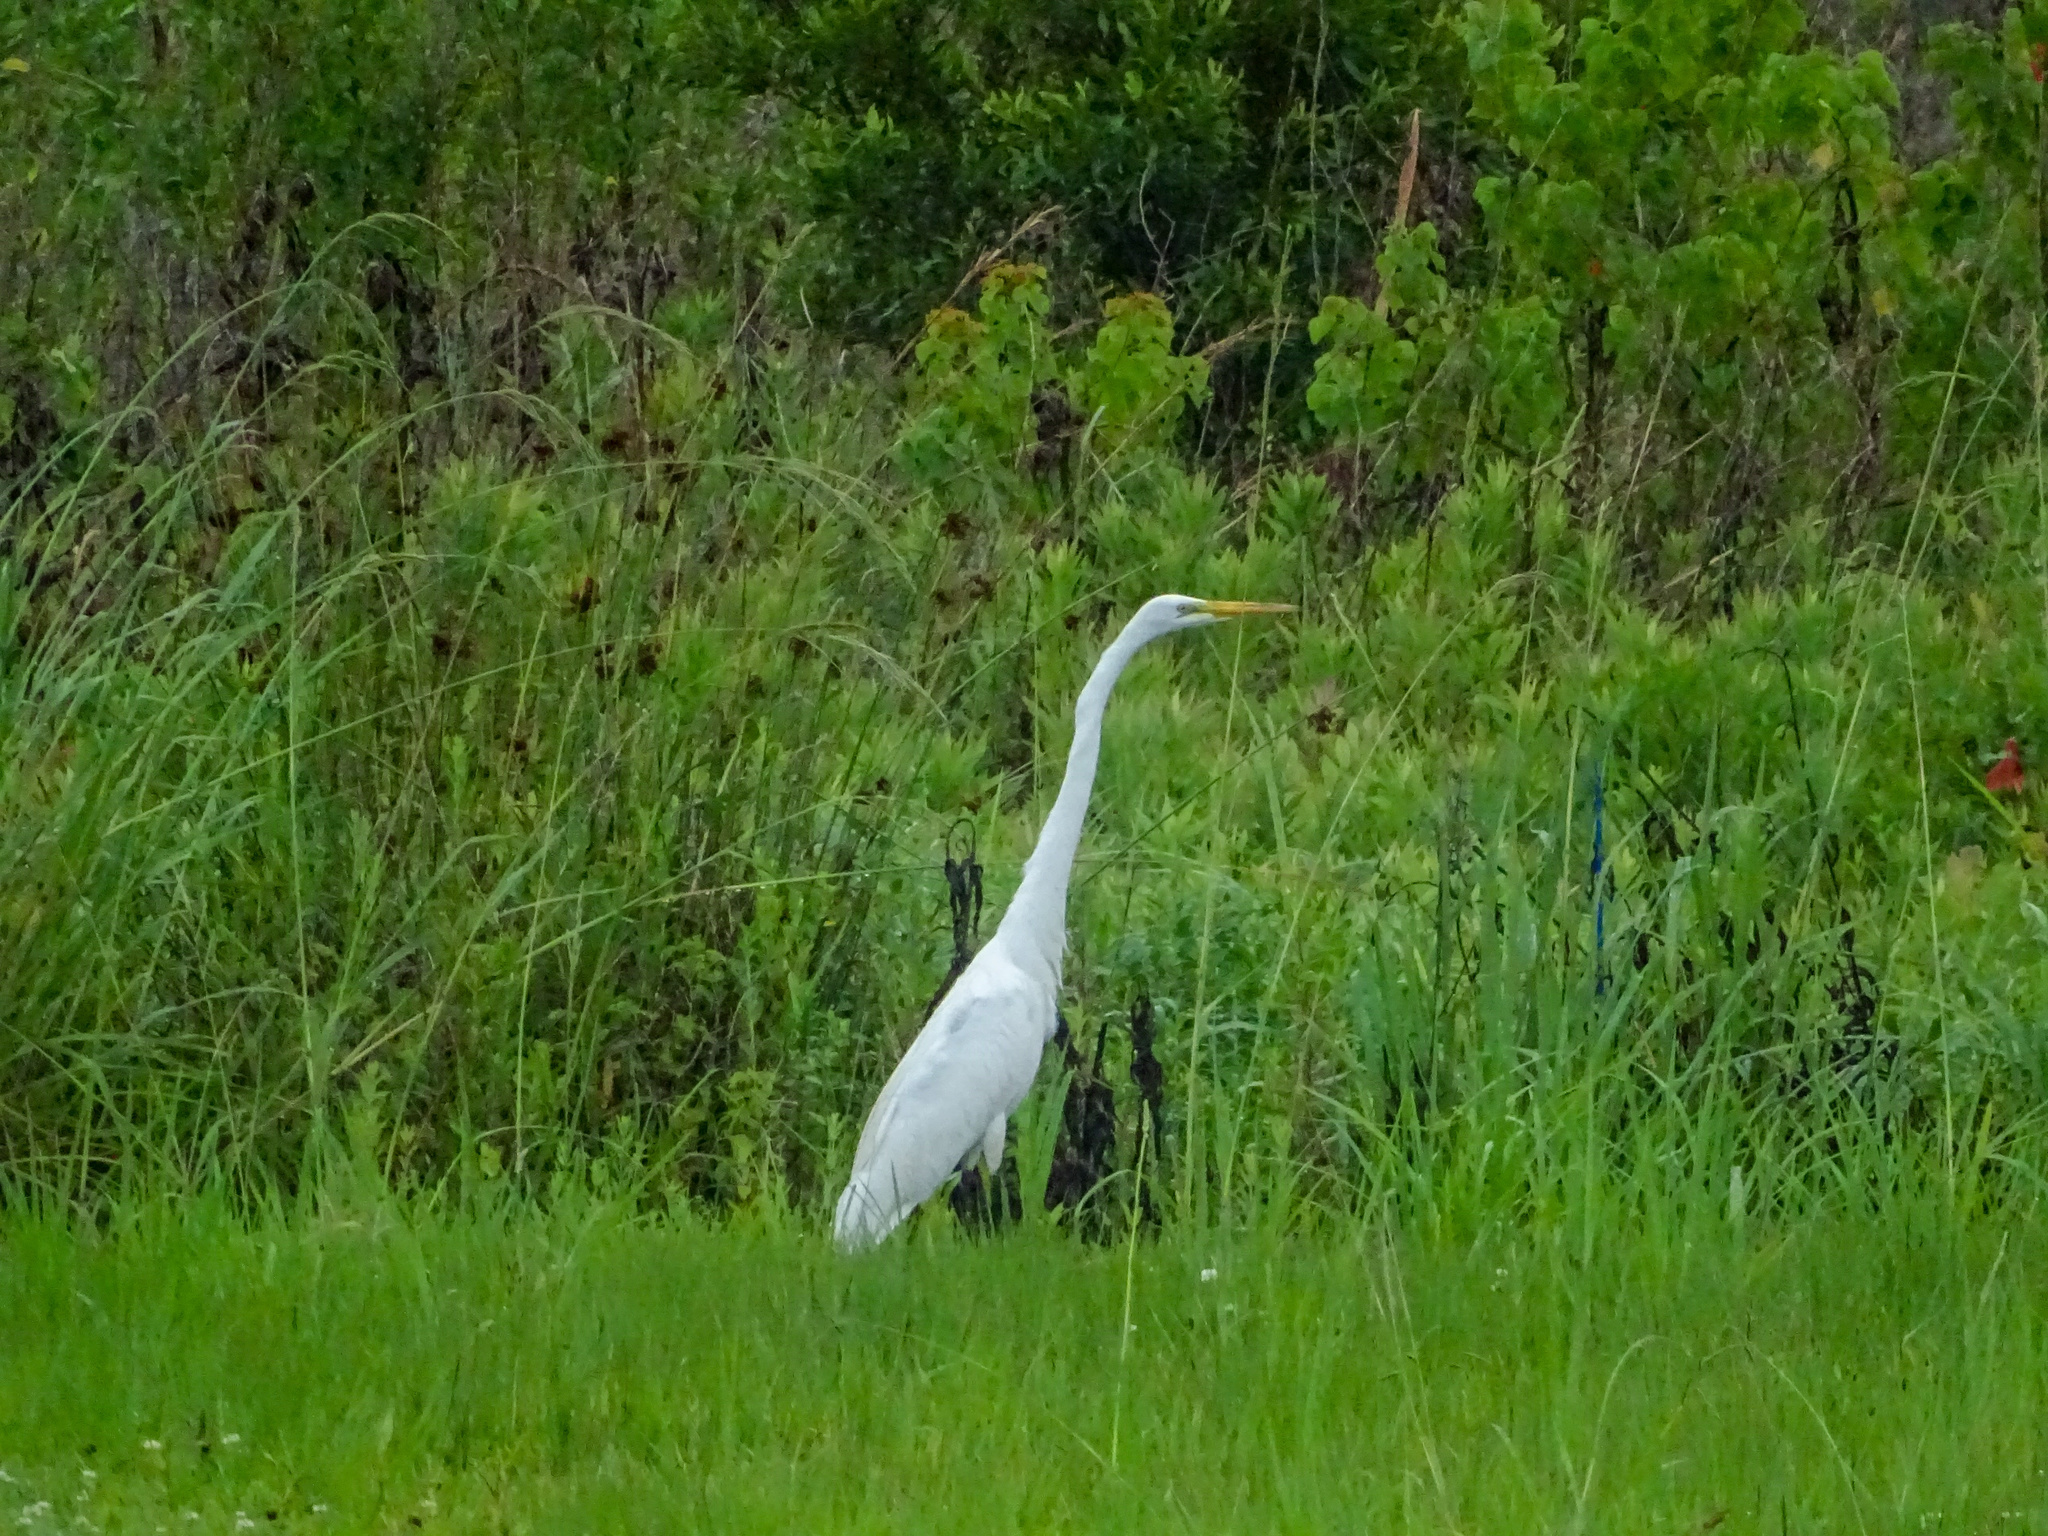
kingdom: Animalia
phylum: Chordata
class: Aves
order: Pelecaniformes
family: Ardeidae
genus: Ardea
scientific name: Ardea alba
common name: Great egret
